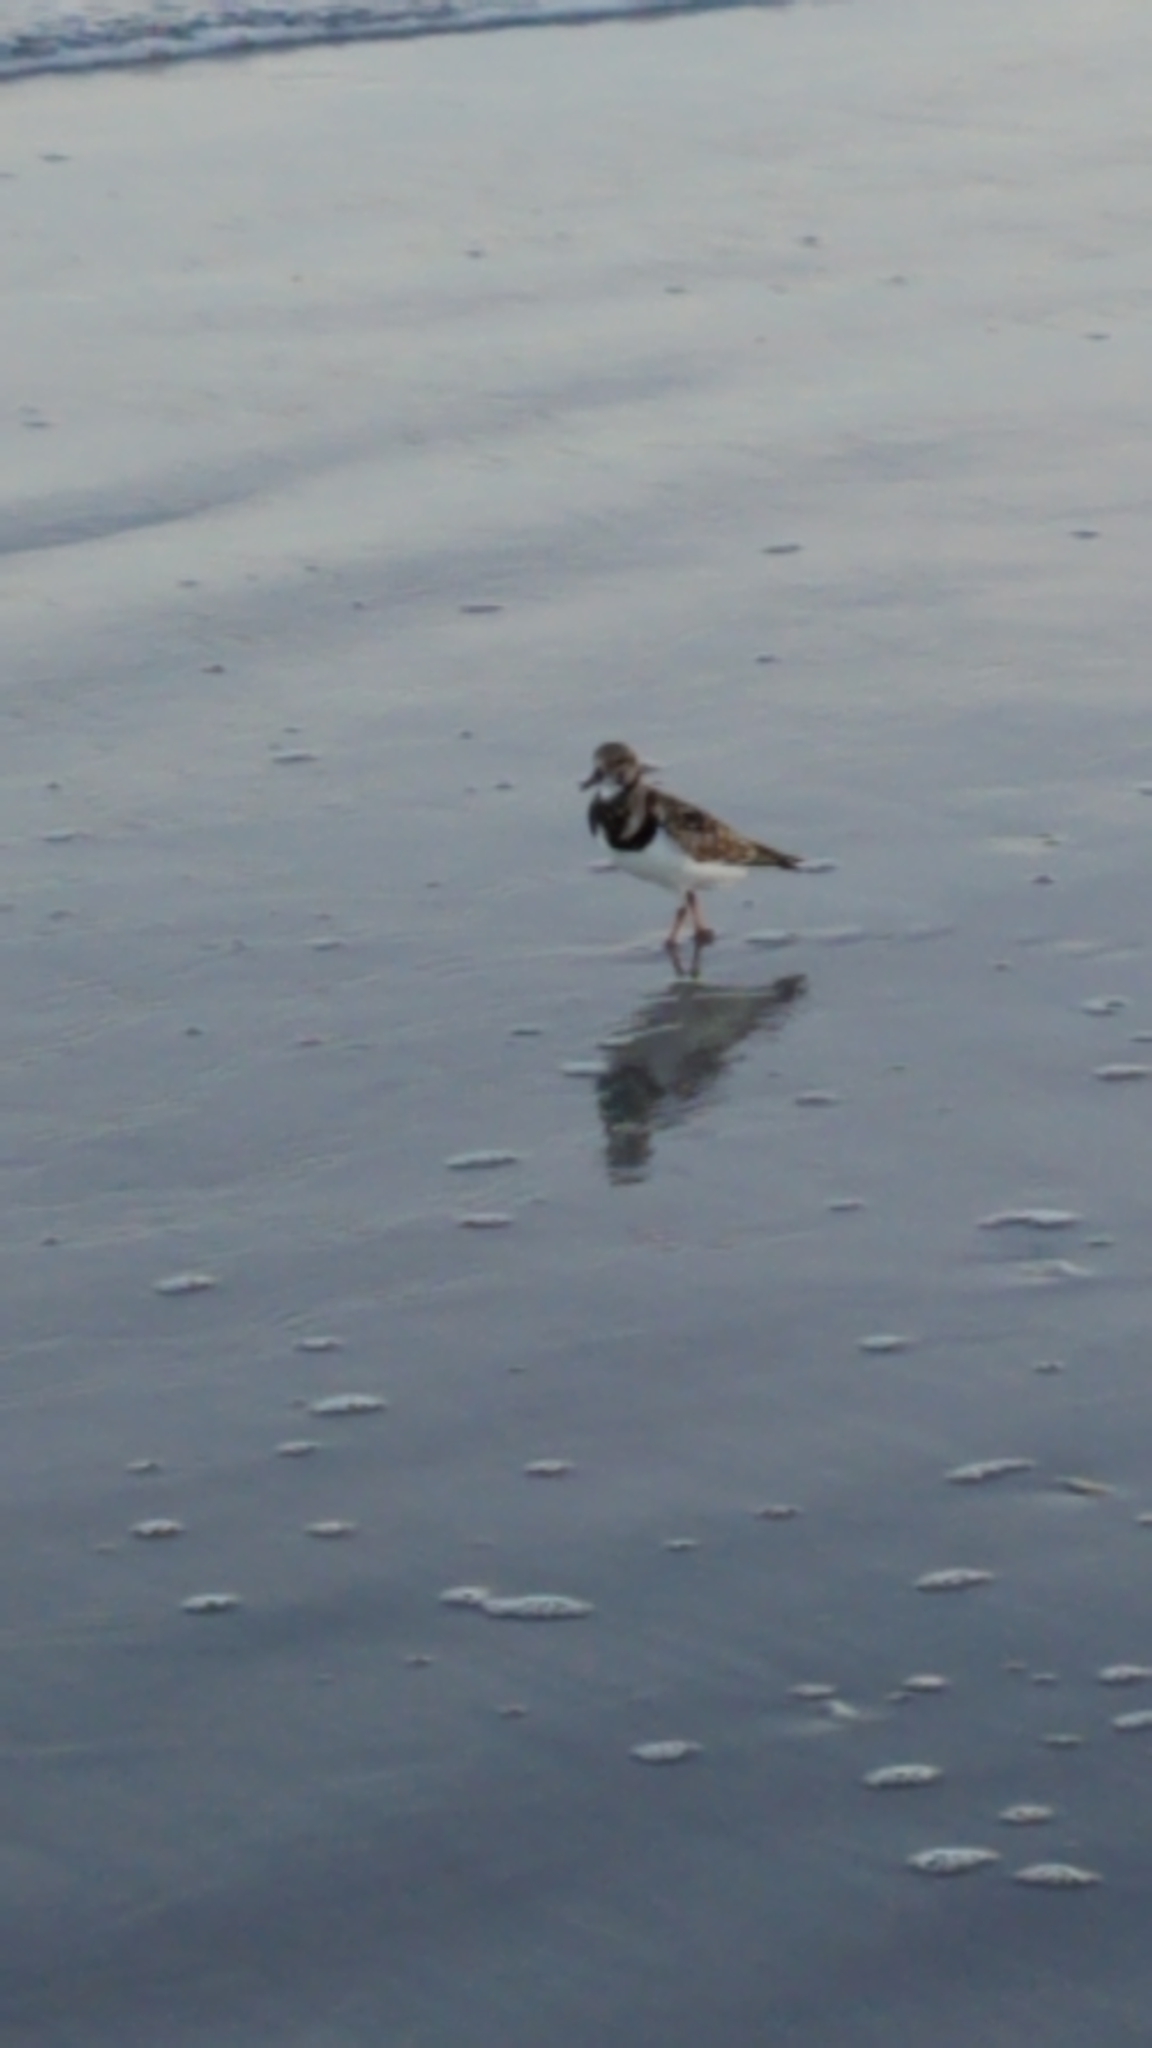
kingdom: Animalia
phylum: Chordata
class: Aves
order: Charadriiformes
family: Scolopacidae
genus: Arenaria
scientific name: Arenaria interpres
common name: Ruddy turnstone
